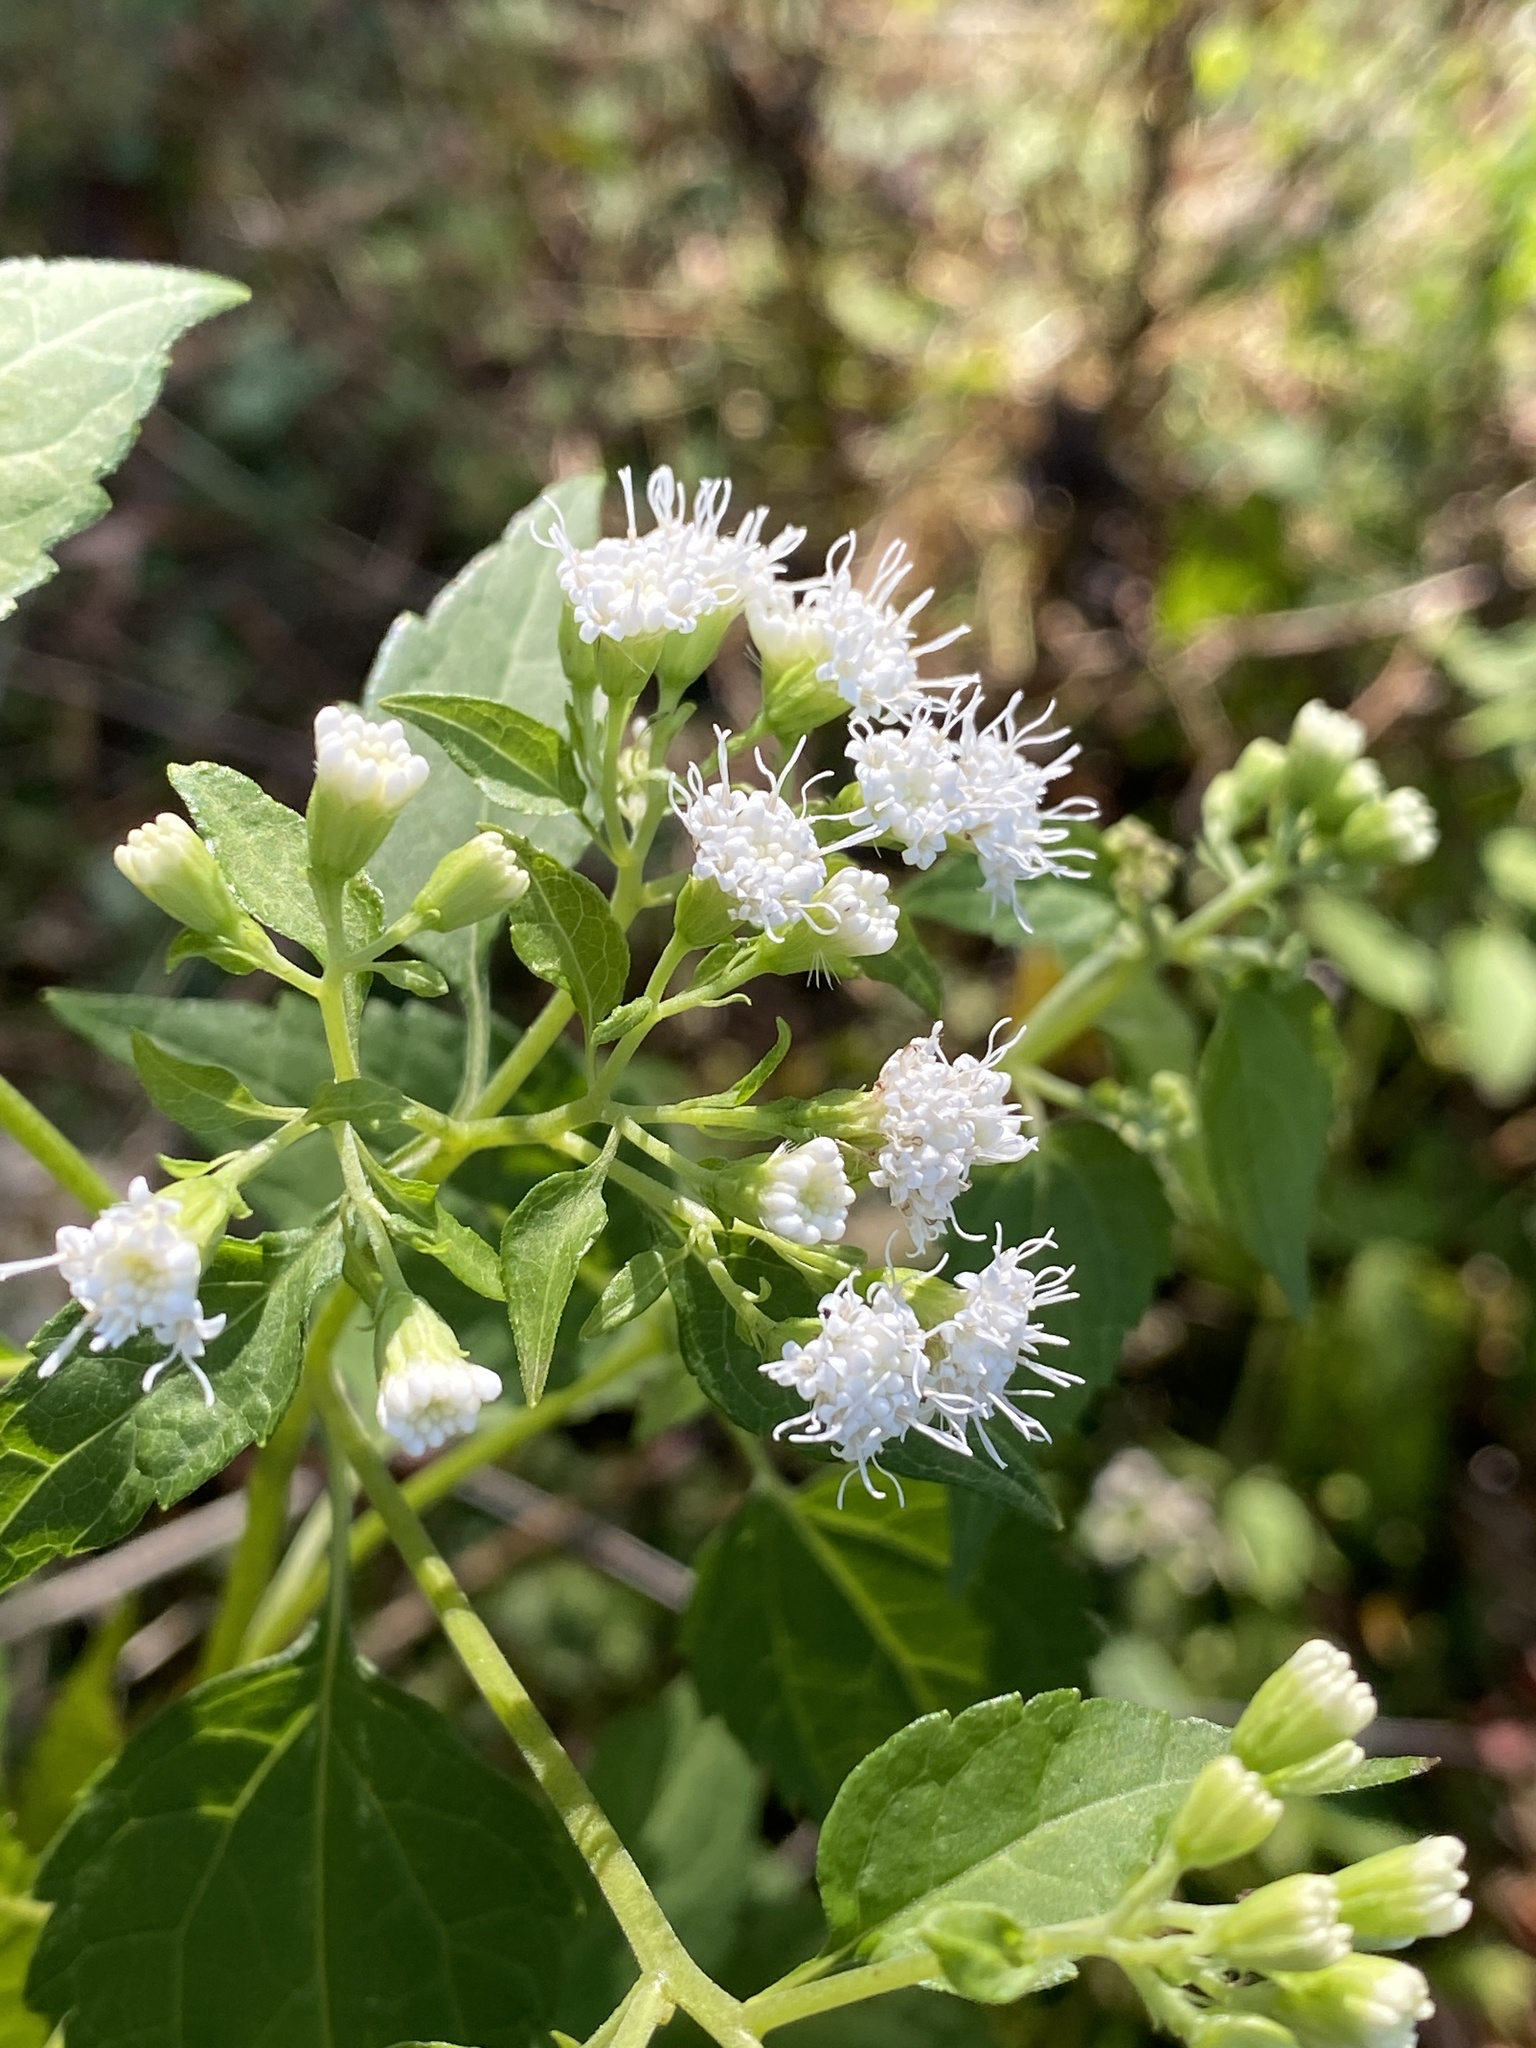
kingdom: Plantae
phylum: Tracheophyta
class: Magnoliopsida
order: Asterales
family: Asteraceae
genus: Ageratina
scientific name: Ageratina altissima
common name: White snakeroot
